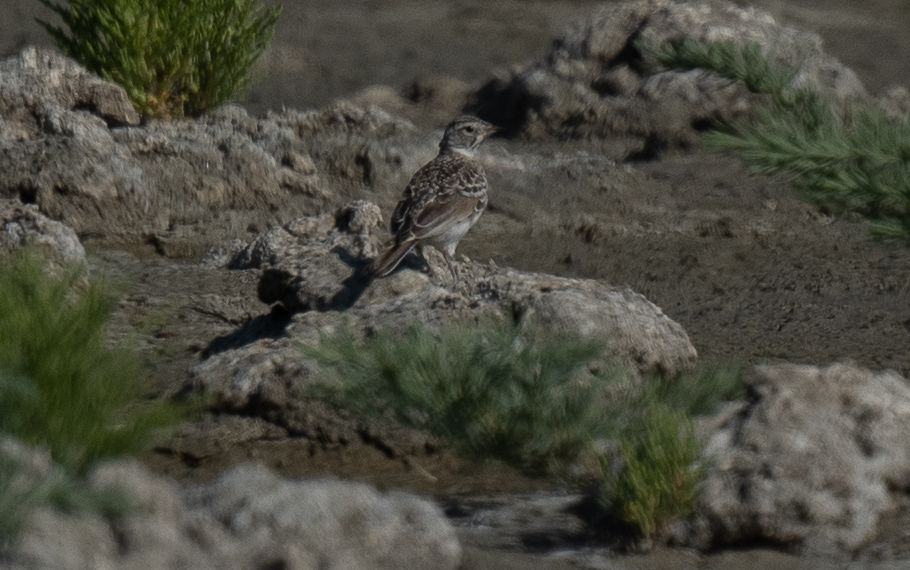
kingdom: Animalia
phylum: Chordata
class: Aves
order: Passeriformes
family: Alaudidae
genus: Eremophila
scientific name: Eremophila alpestris
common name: Horned lark
